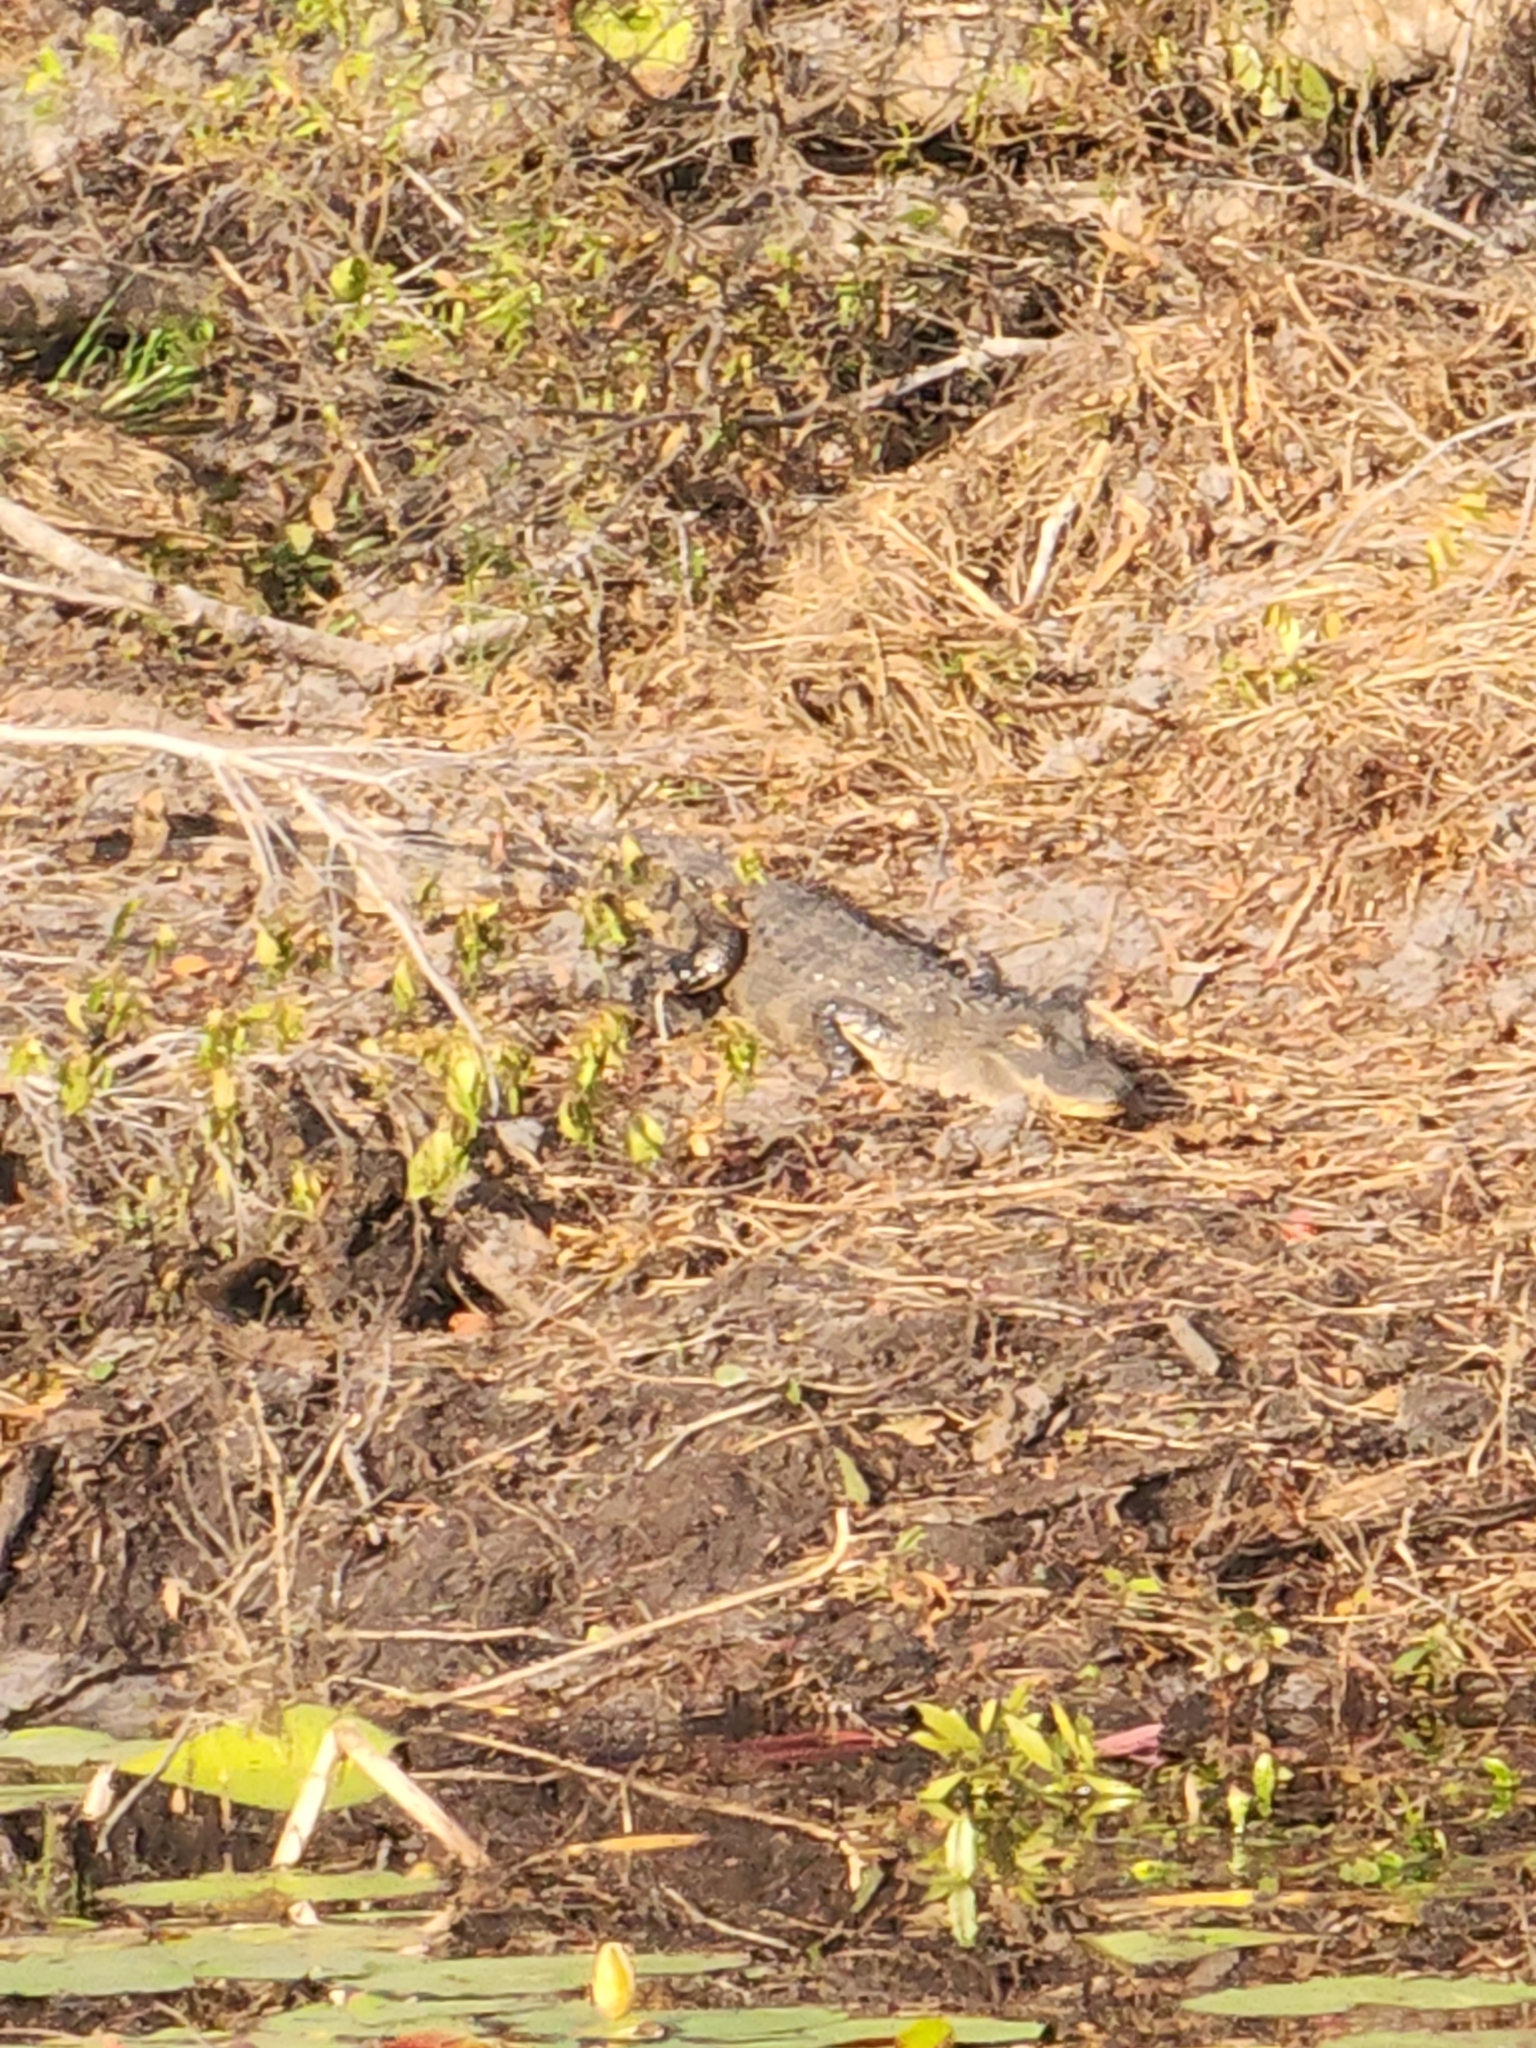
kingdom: Animalia
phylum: Chordata
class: Crocodylia
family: Alligatoridae
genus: Alligator
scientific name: Alligator mississippiensis
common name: American alligator
